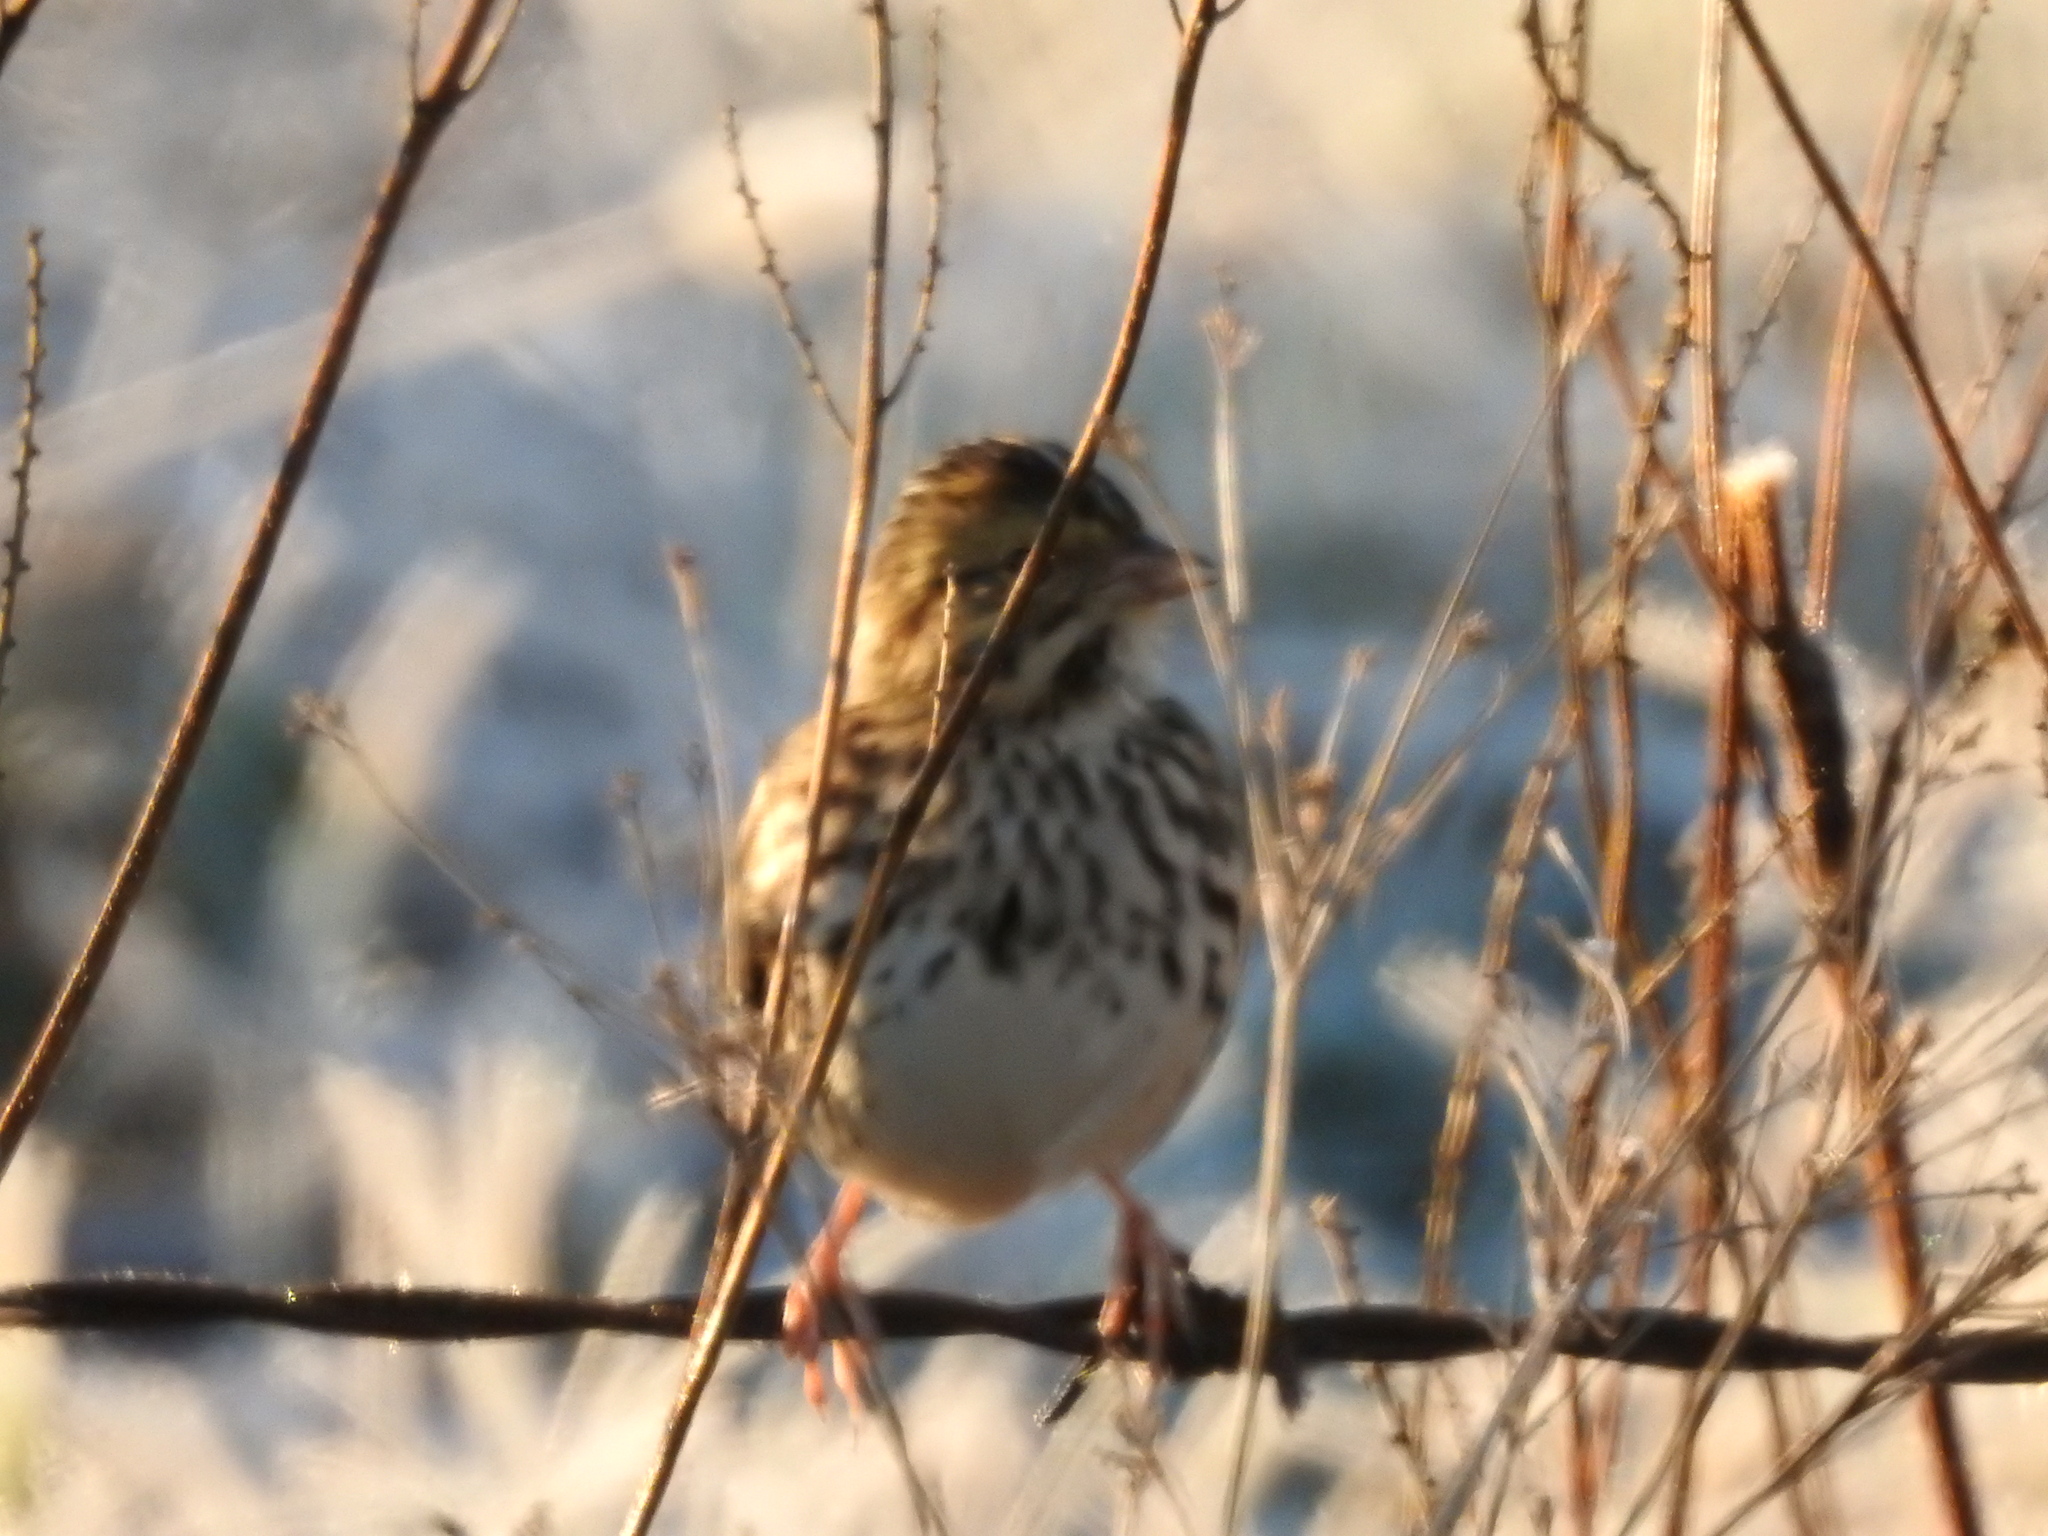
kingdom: Animalia
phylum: Chordata
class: Aves
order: Passeriformes
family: Passerellidae
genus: Passerculus
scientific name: Passerculus sandwichensis
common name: Savannah sparrow
